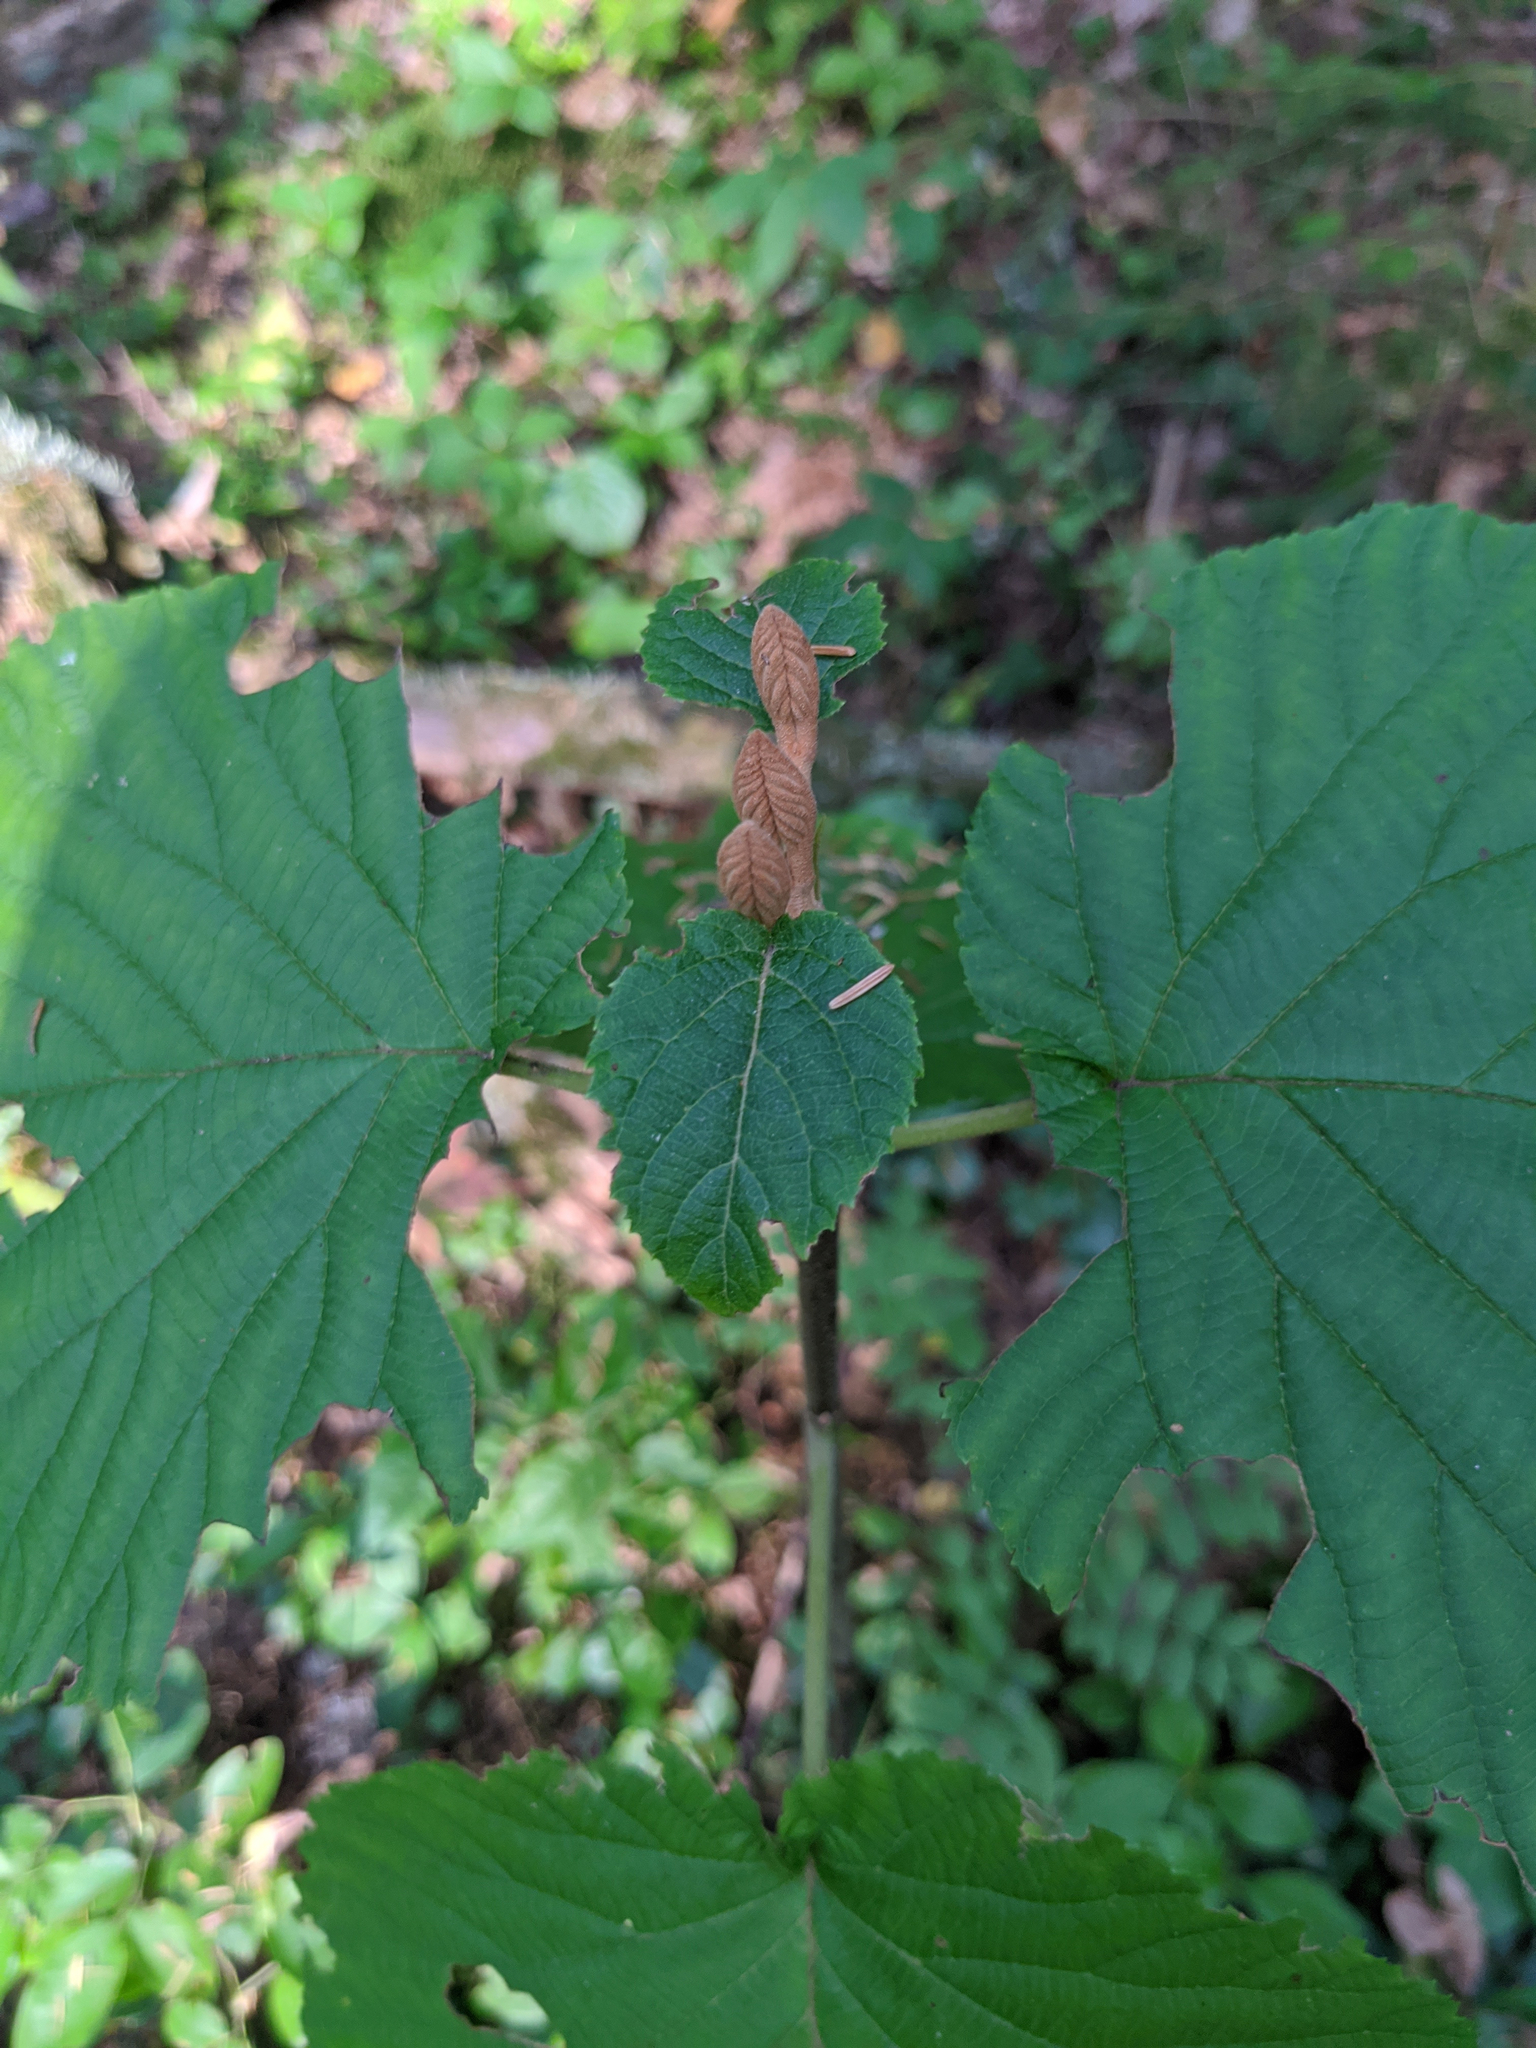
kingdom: Plantae
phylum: Tracheophyta
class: Magnoliopsida
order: Dipsacales
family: Viburnaceae
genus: Viburnum
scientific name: Viburnum lantanoides
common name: Hobblebush
